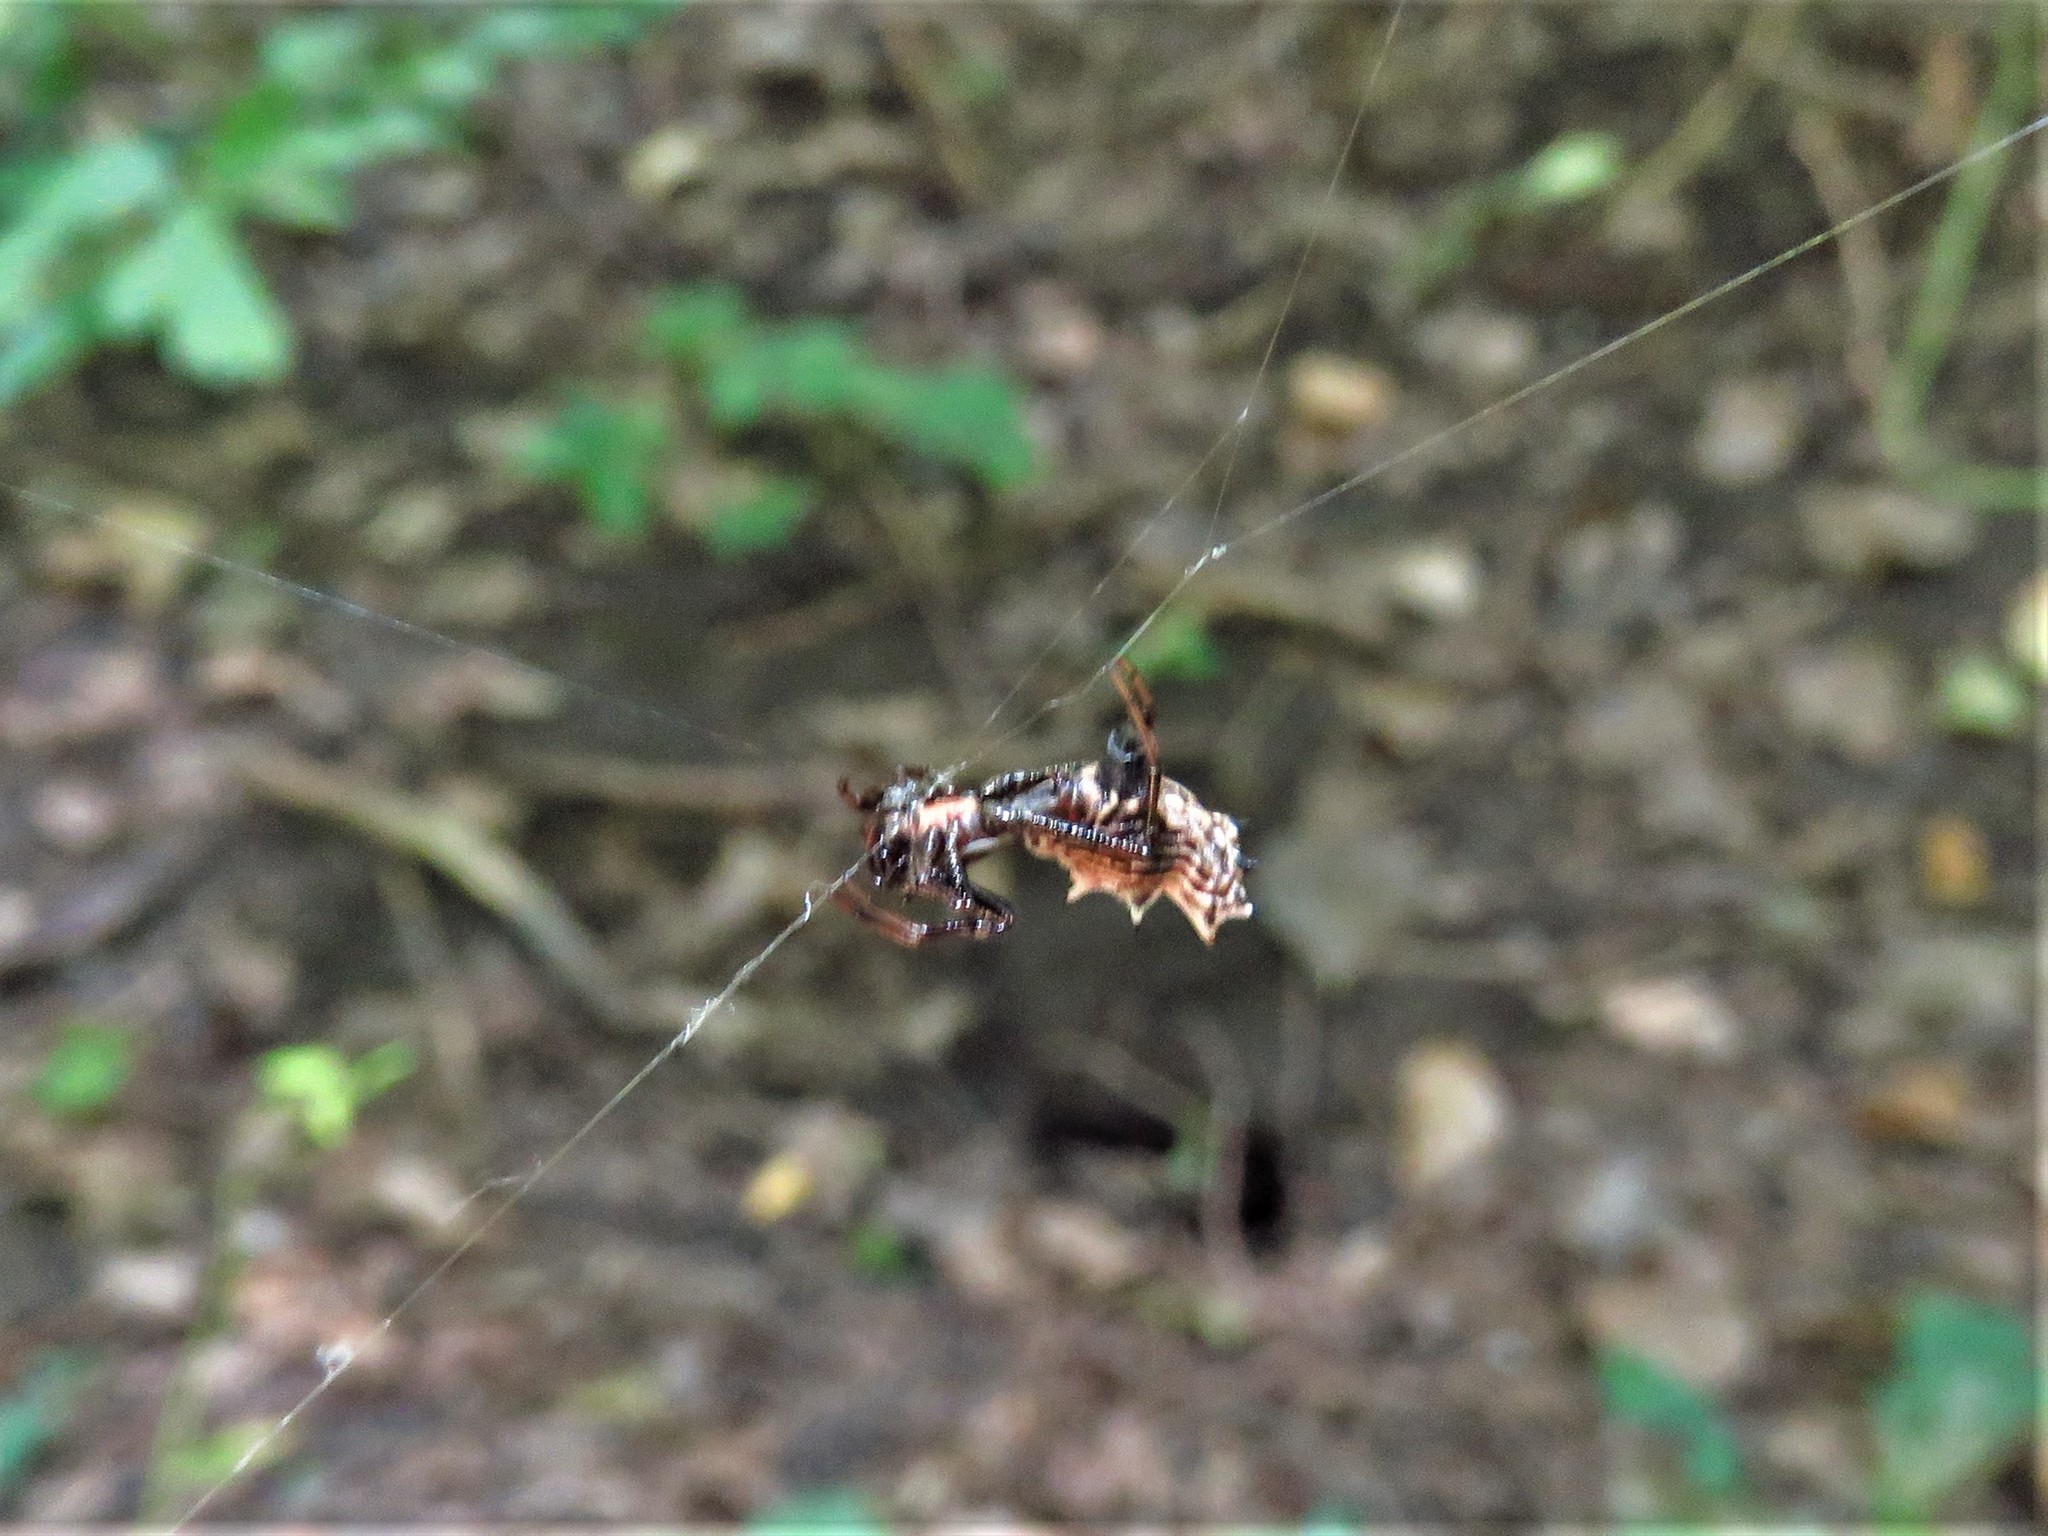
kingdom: Animalia
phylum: Arthropoda
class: Arachnida
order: Araneae
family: Araneidae
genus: Micrathena
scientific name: Micrathena gracilis
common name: Orb weavers
